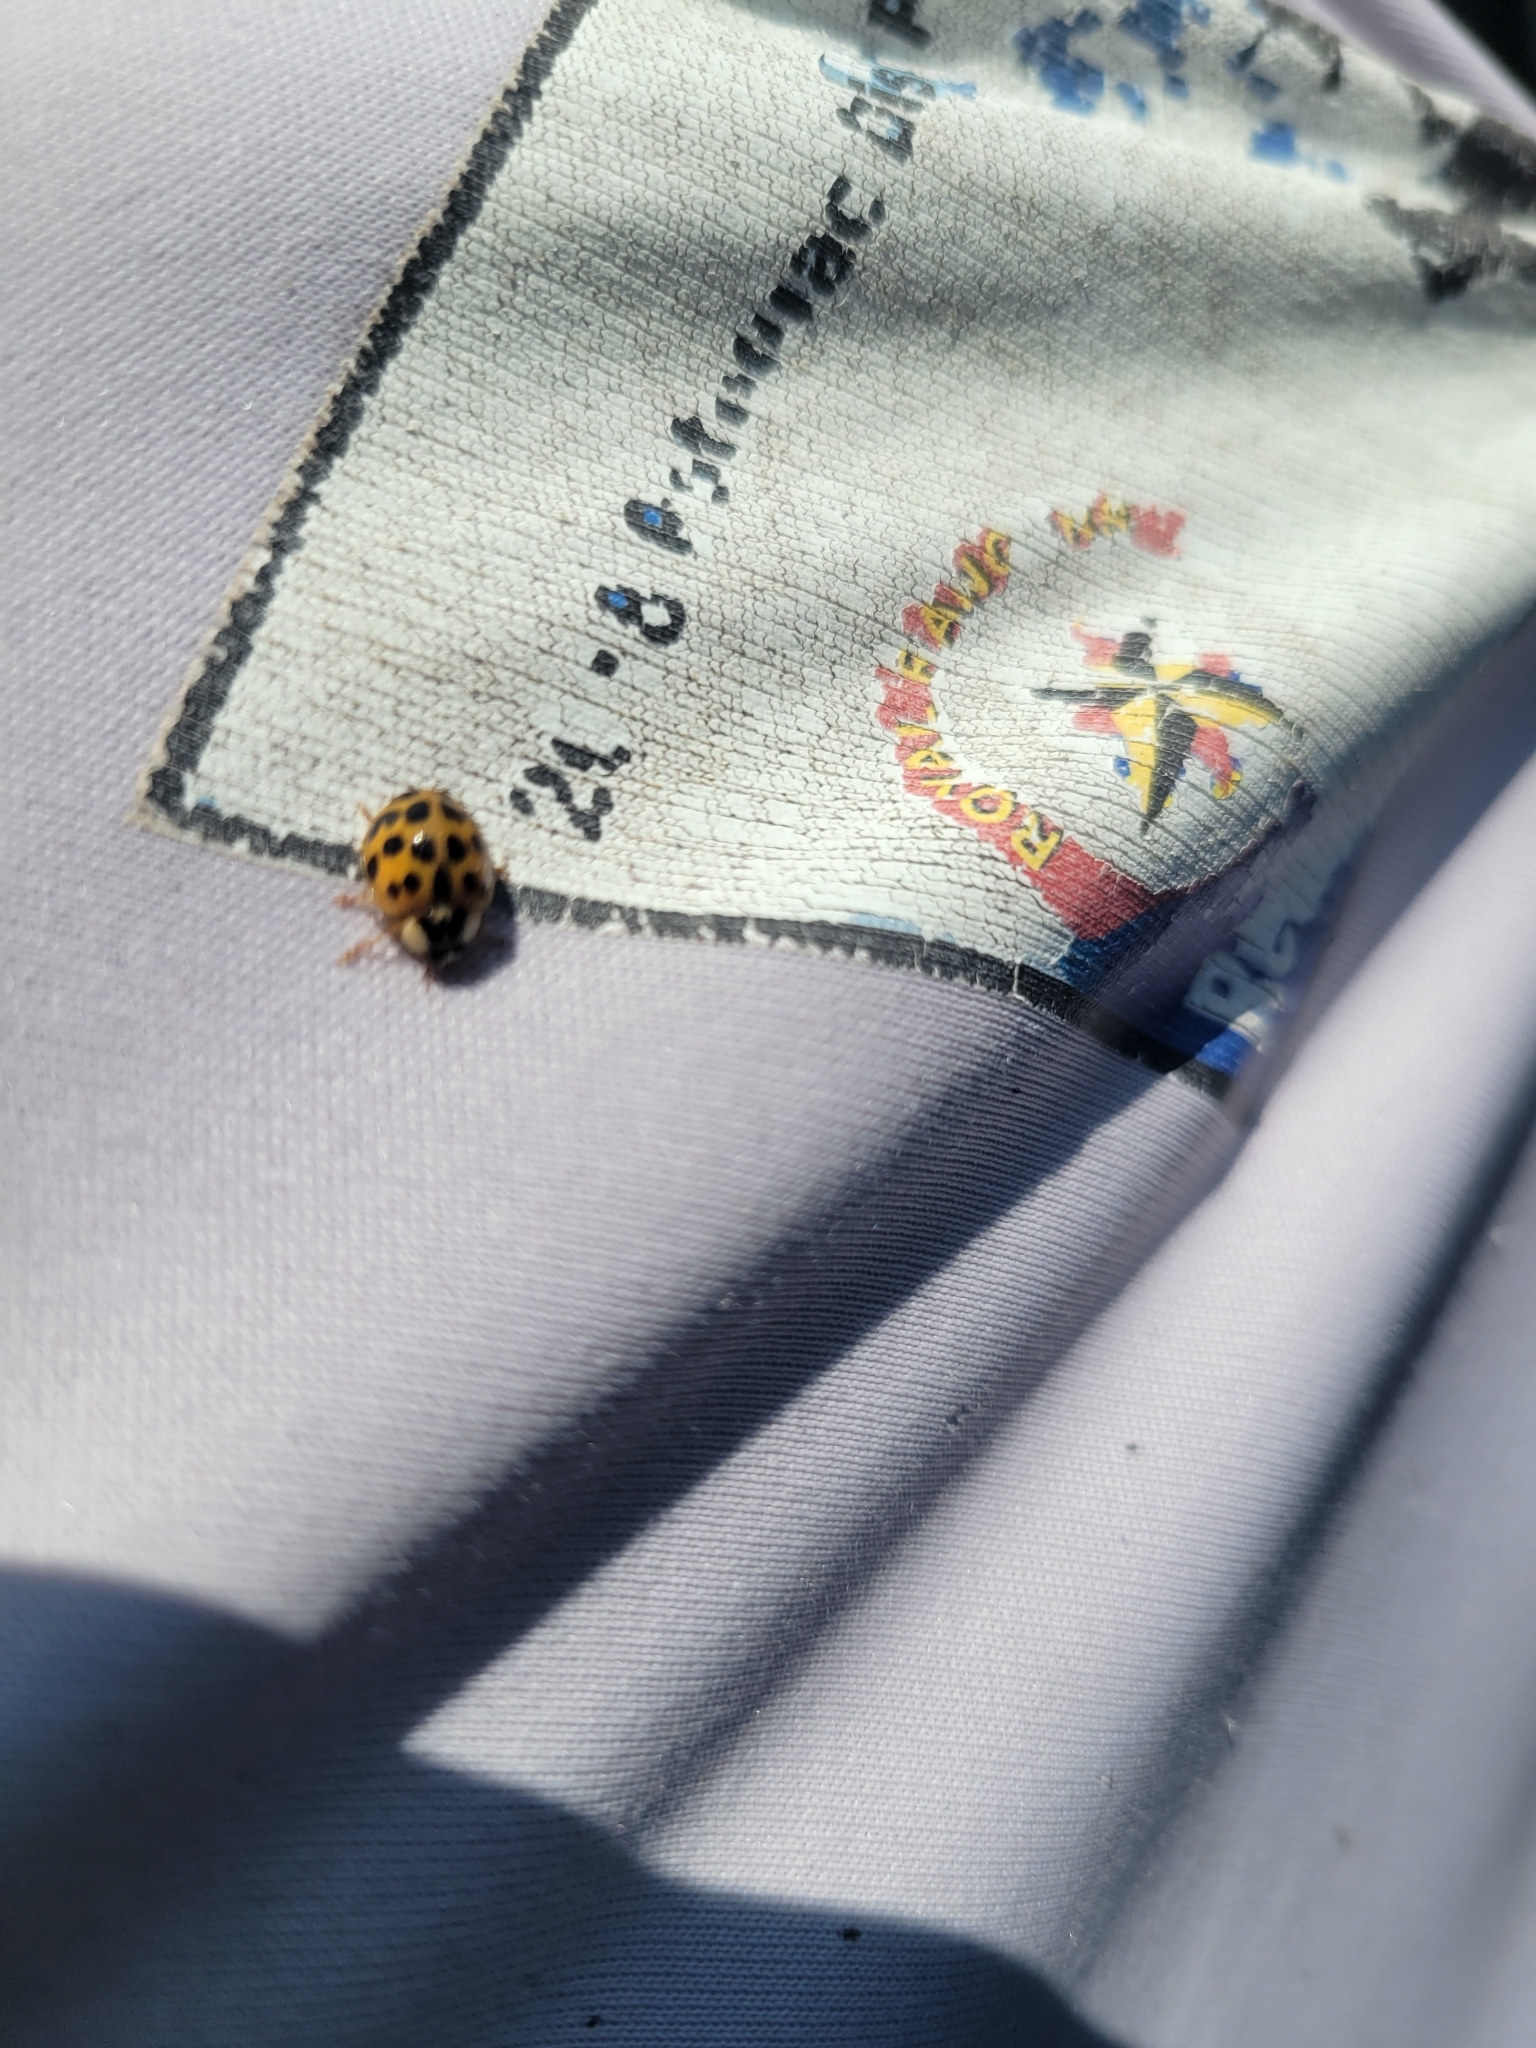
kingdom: Animalia
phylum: Arthropoda
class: Insecta
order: Coleoptera
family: Coccinellidae
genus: Harmonia
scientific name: Harmonia axyridis
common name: Harlequin ladybird
